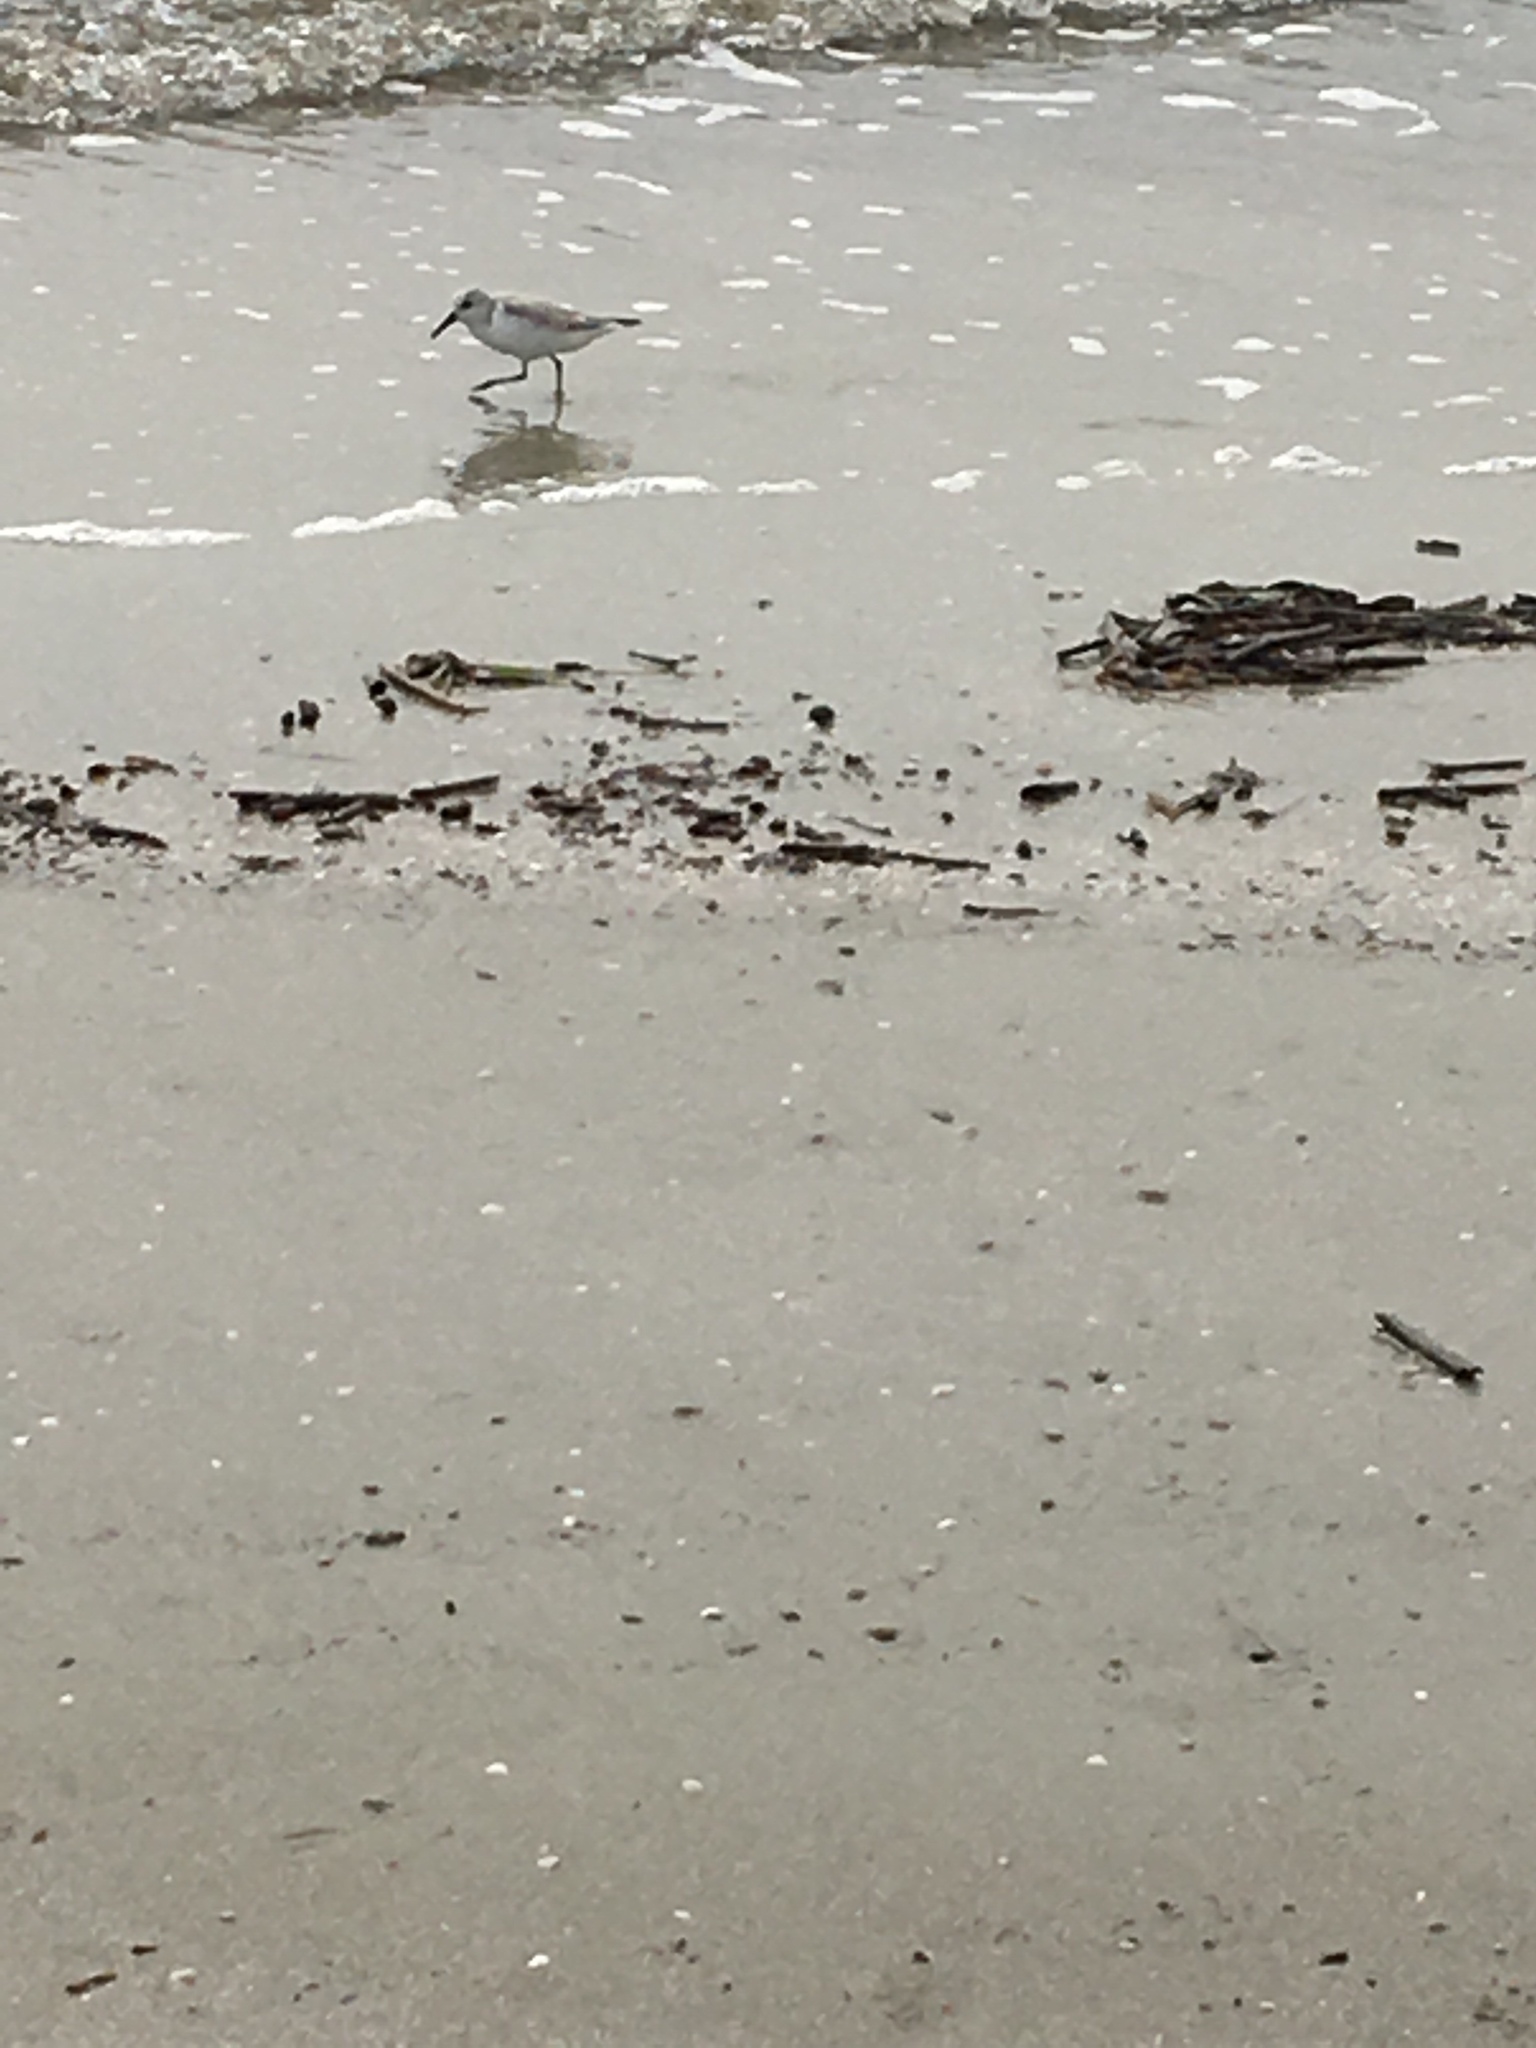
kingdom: Animalia
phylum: Chordata
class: Aves
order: Charadriiformes
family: Scolopacidae
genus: Calidris
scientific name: Calidris alba
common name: Sanderling
